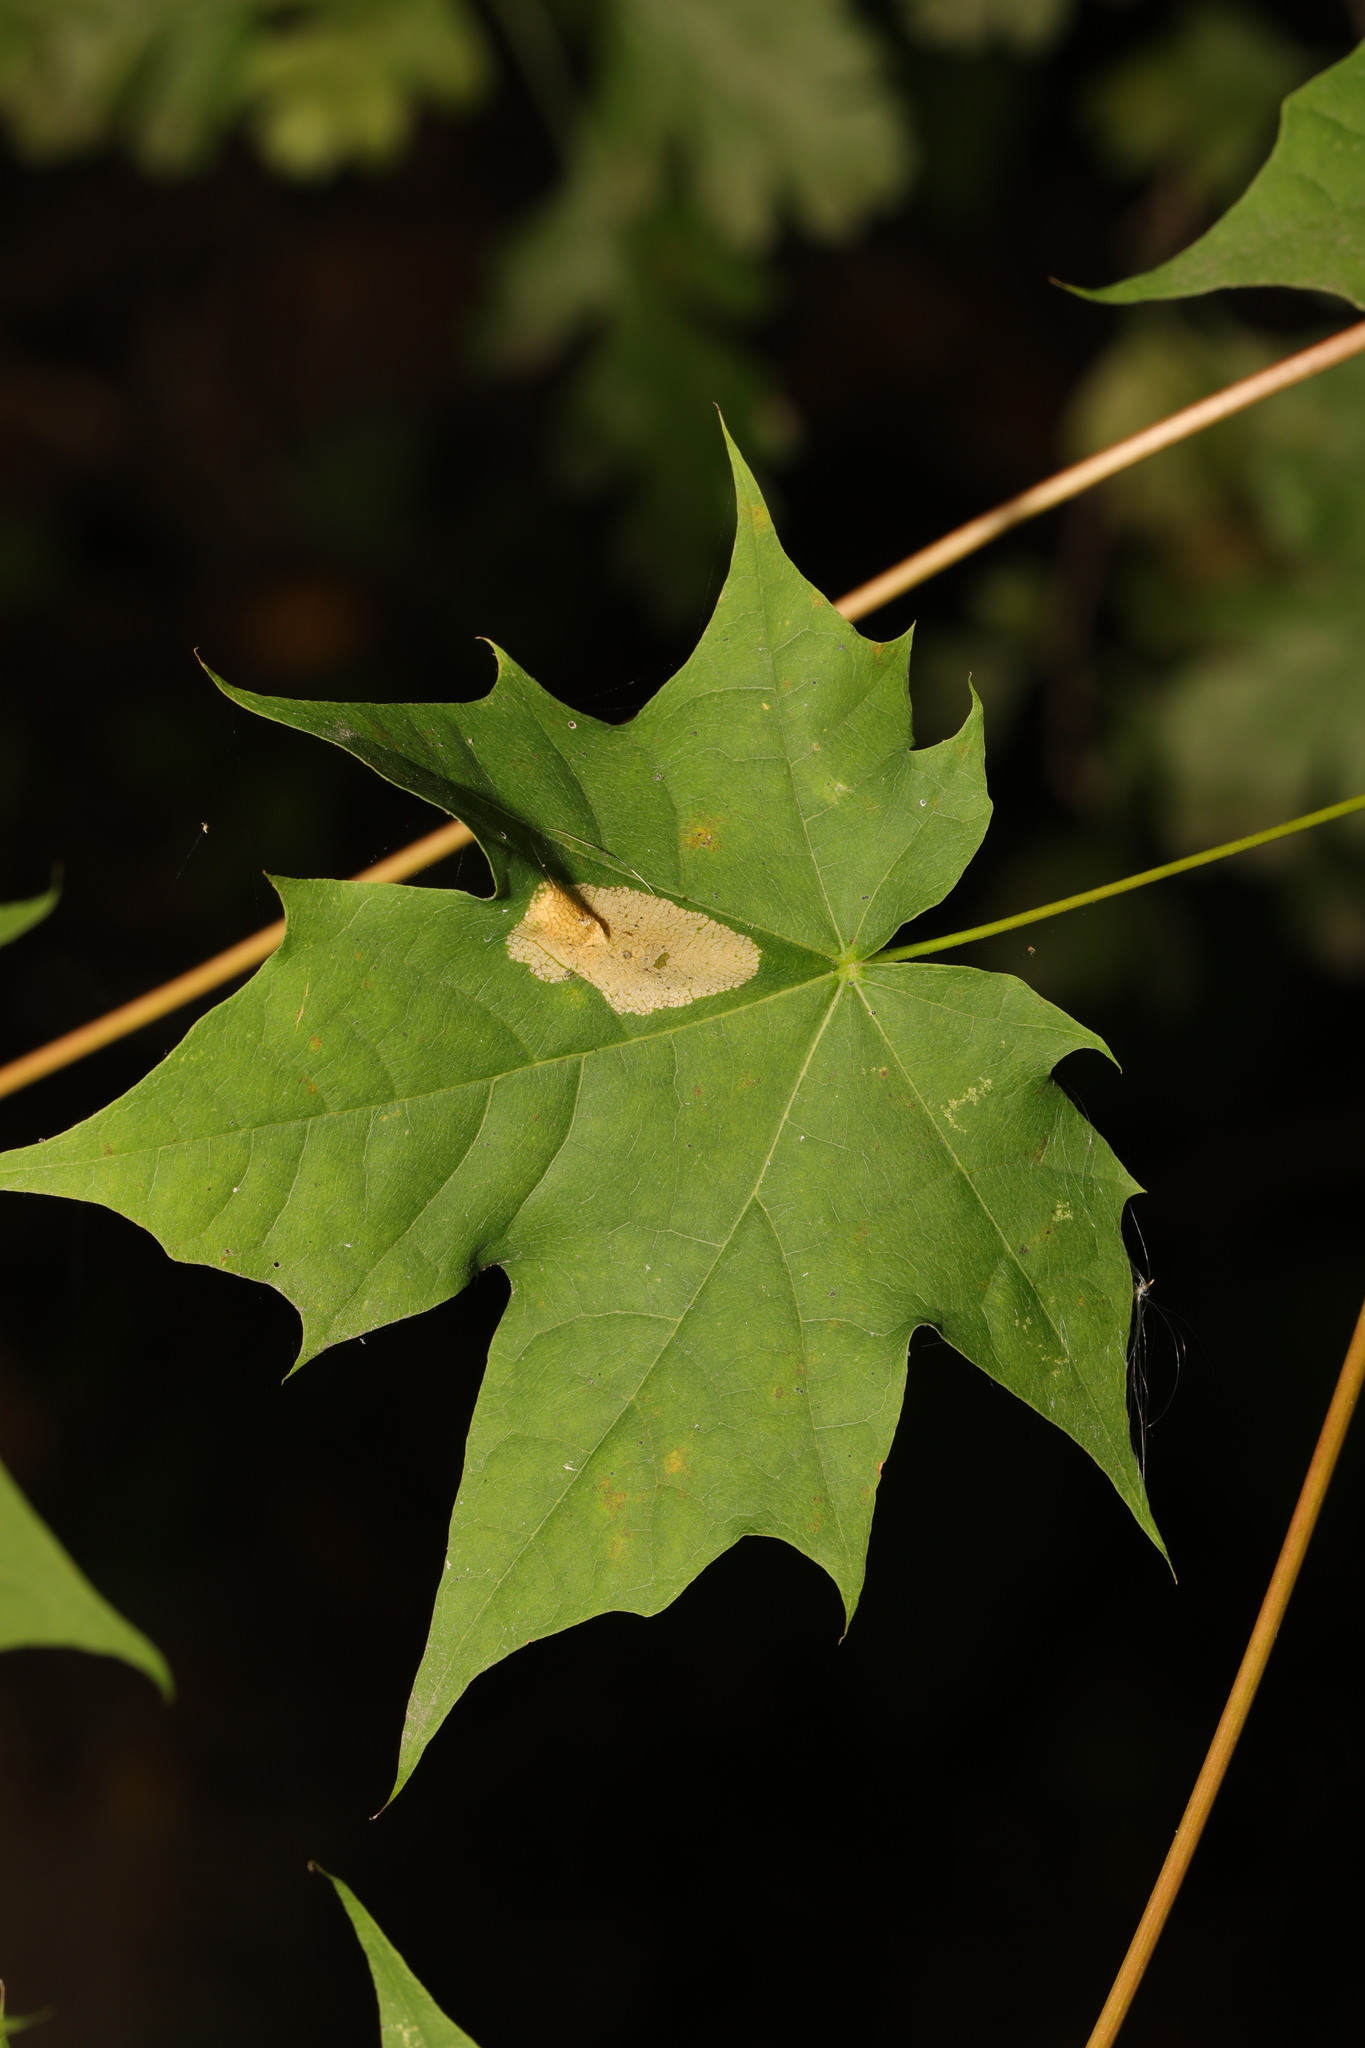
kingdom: Plantae
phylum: Tracheophyta
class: Magnoliopsida
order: Sapindales
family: Sapindaceae
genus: Acer
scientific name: Acer platanoides
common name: Norway maple
